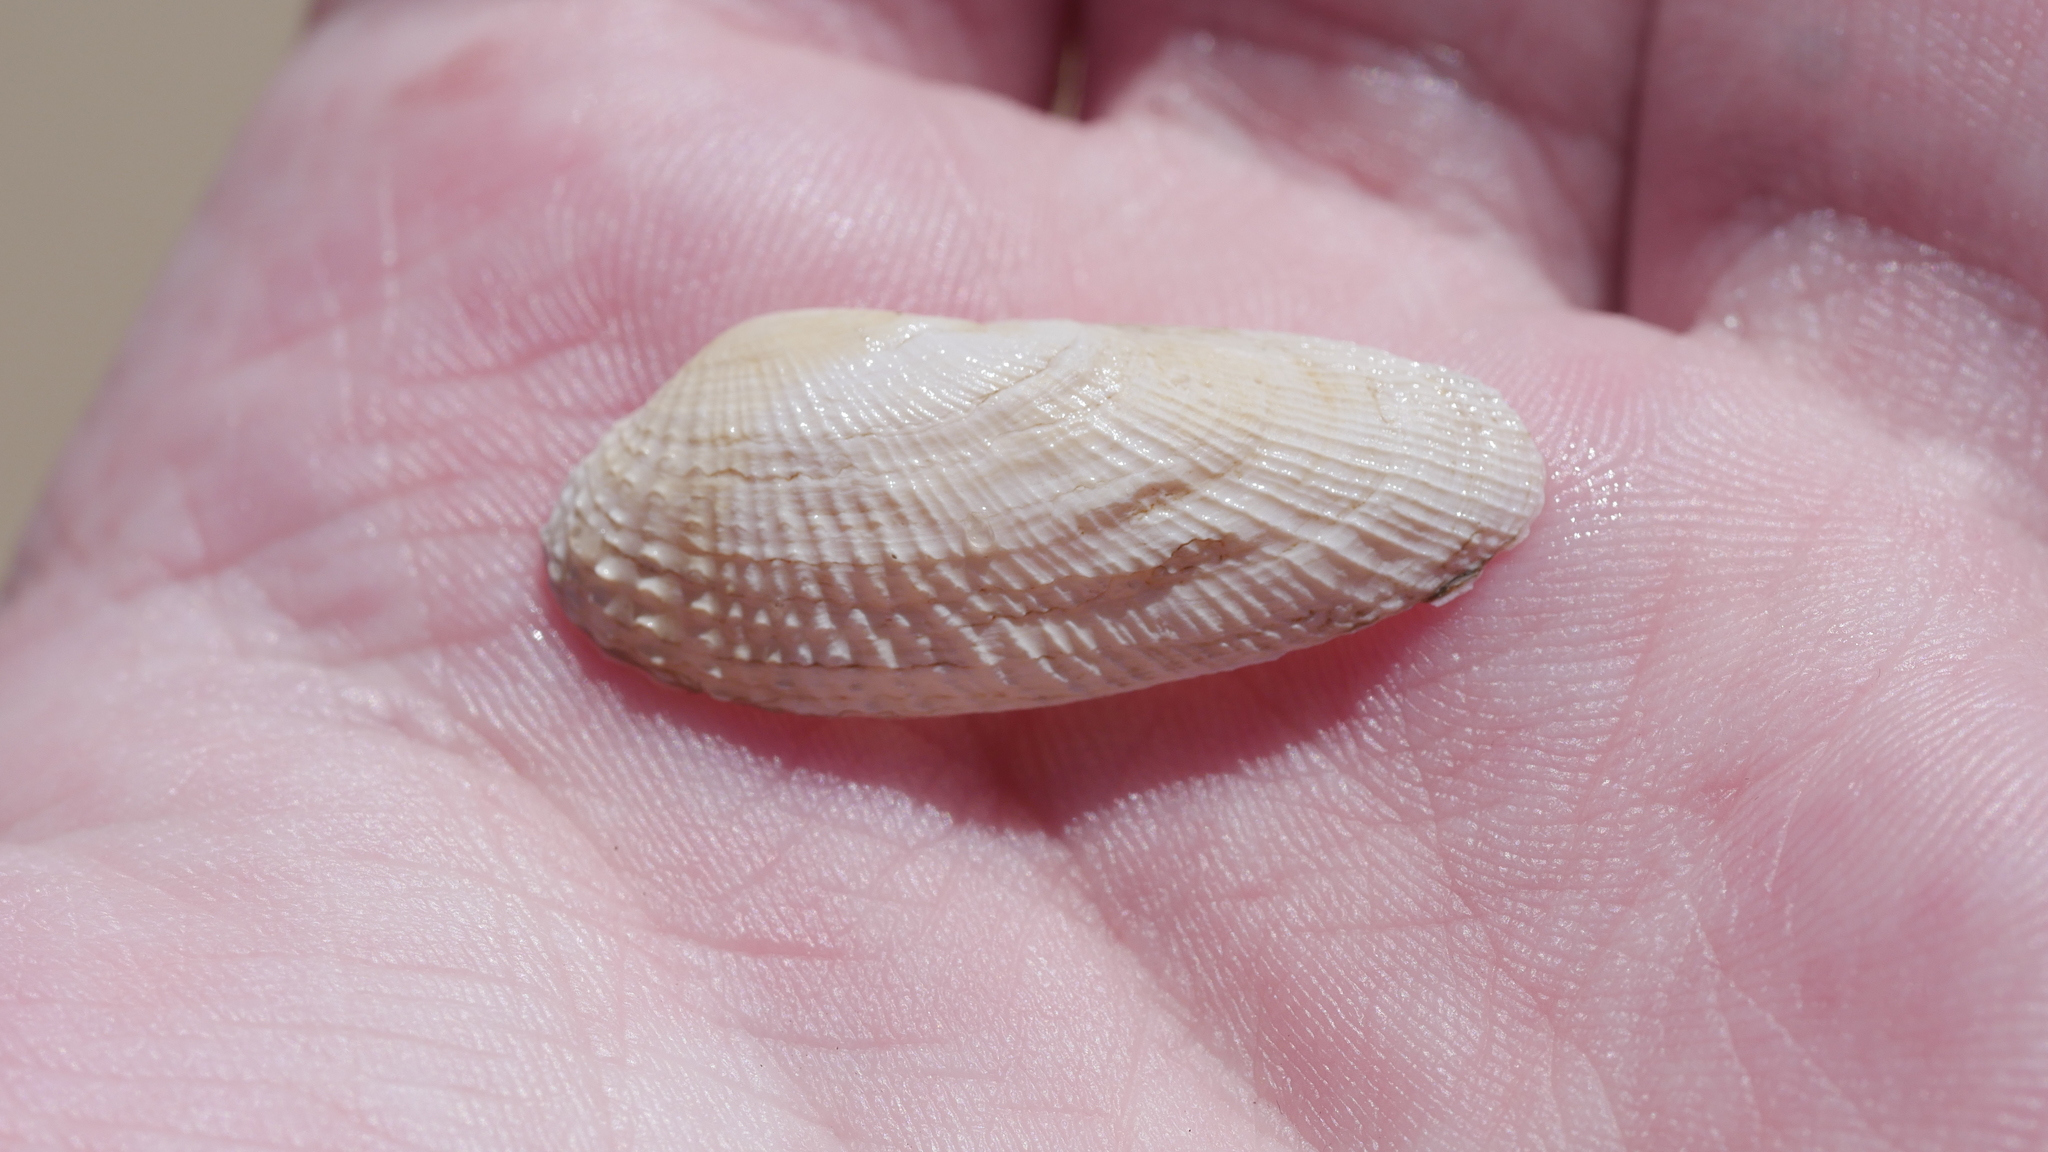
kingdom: Animalia
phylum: Mollusca
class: Bivalvia
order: Venerida
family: Veneridae
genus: Petricolaria
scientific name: Petricolaria pholadiformis
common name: American piddock
